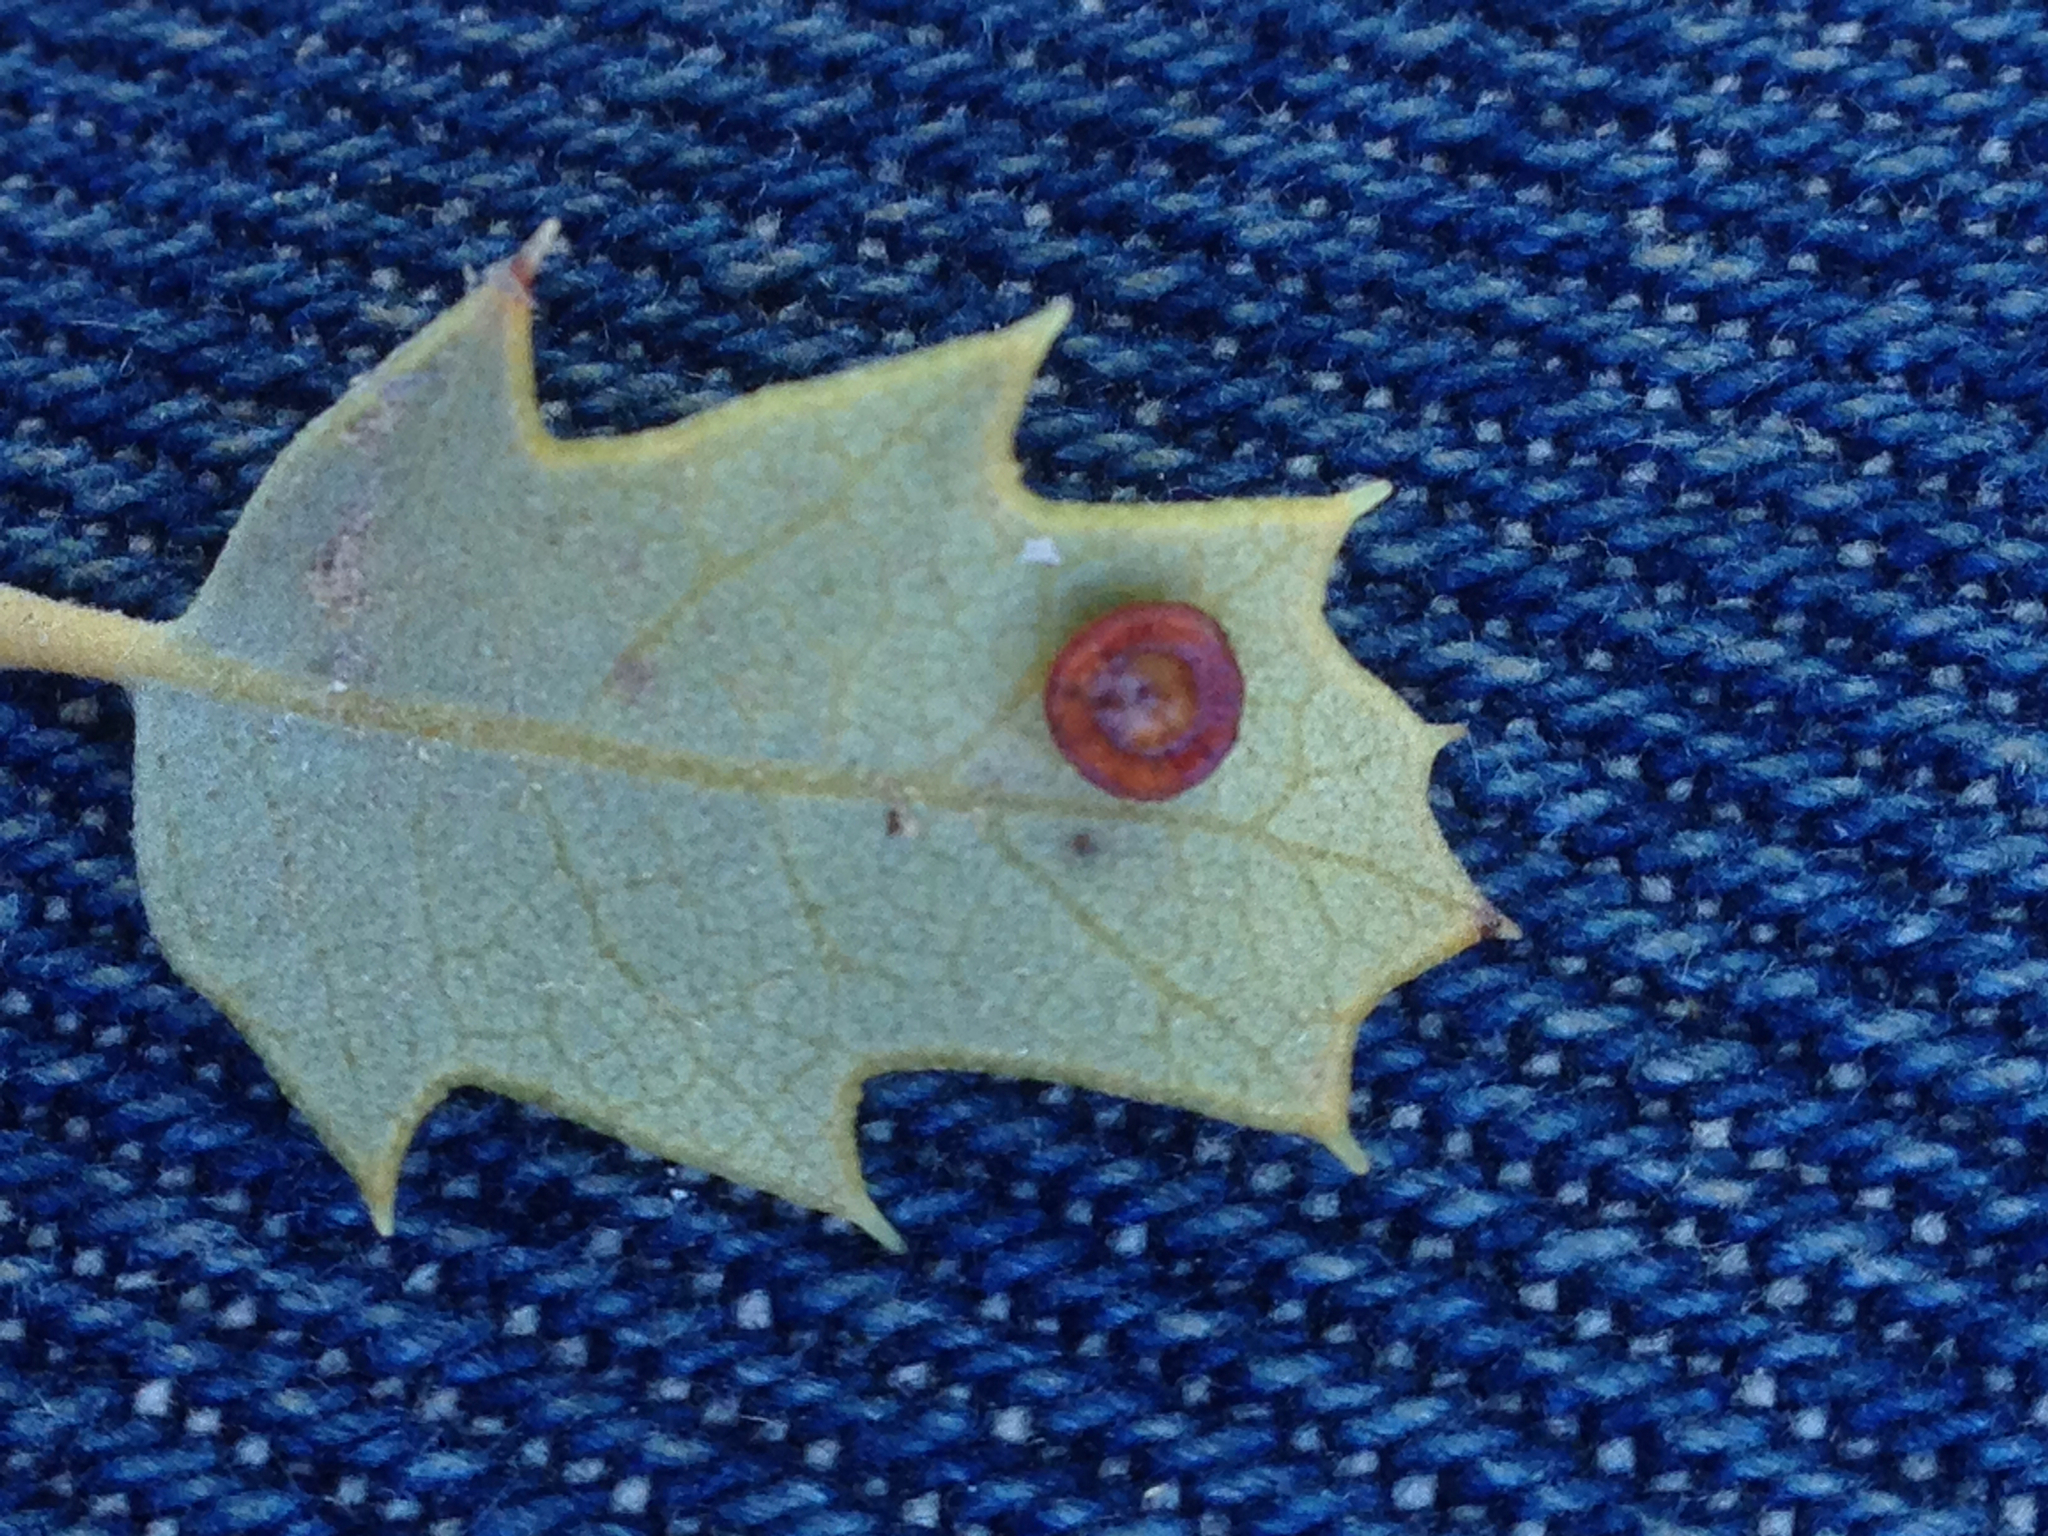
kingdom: Animalia
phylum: Arthropoda
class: Insecta
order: Hymenoptera
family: Cynipidae
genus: Andricus
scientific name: Andricus
